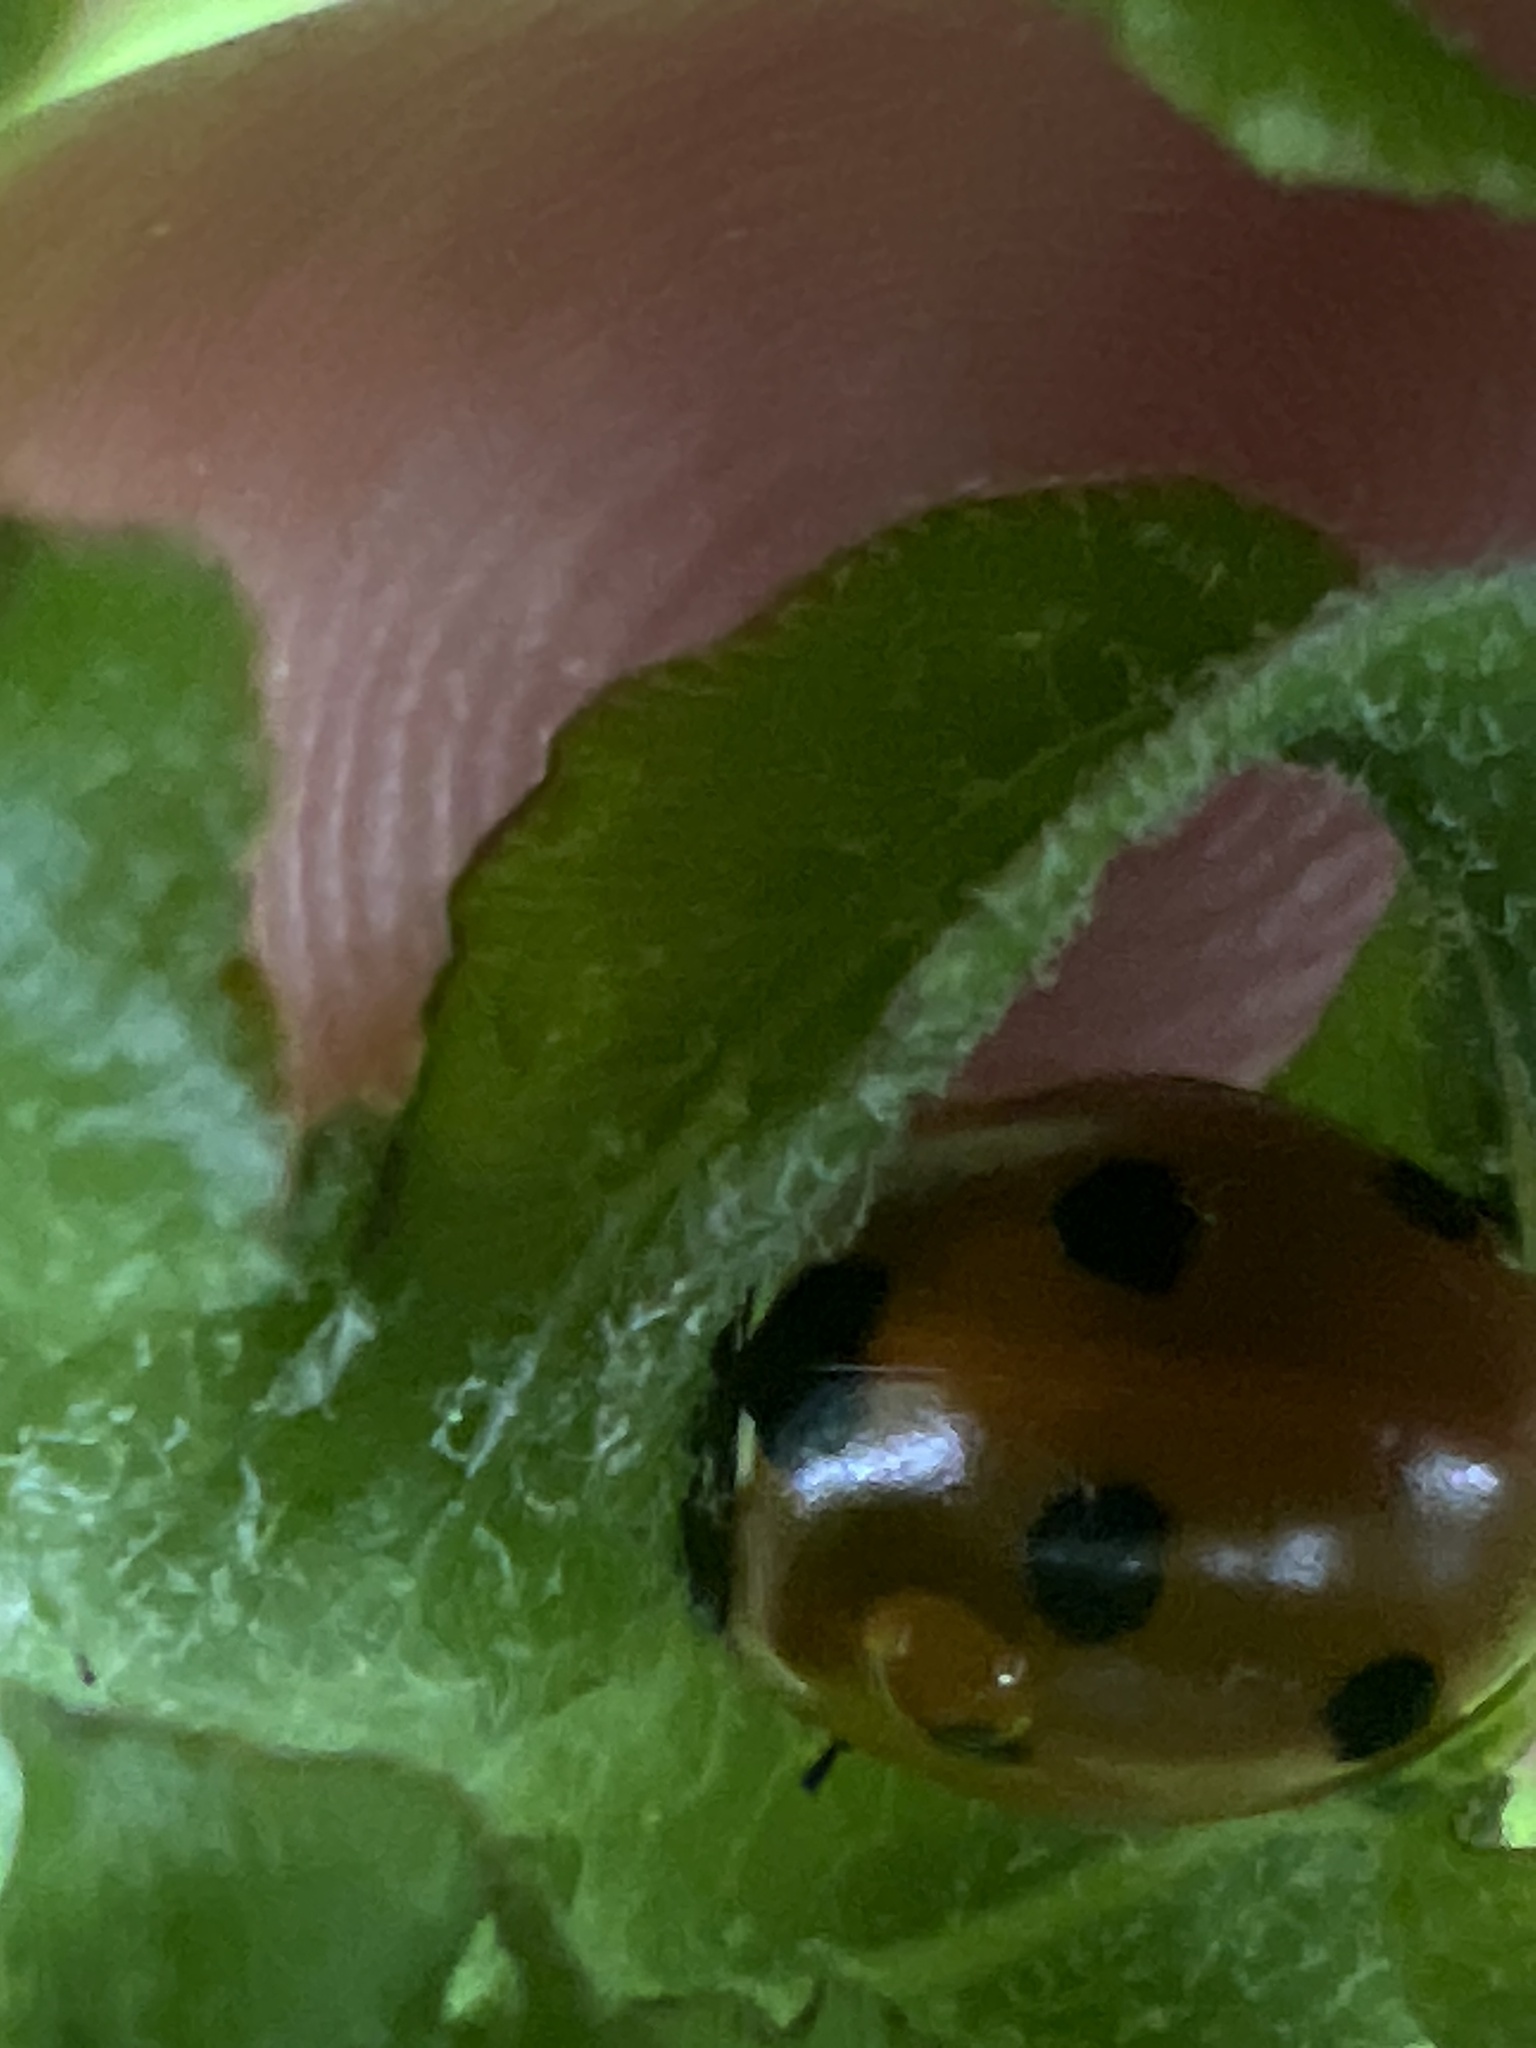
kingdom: Animalia
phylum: Arthropoda
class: Insecta
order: Coleoptera
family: Coccinellidae
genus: Coccinella
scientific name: Coccinella septempunctata
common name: Sevenspotted lady beetle
